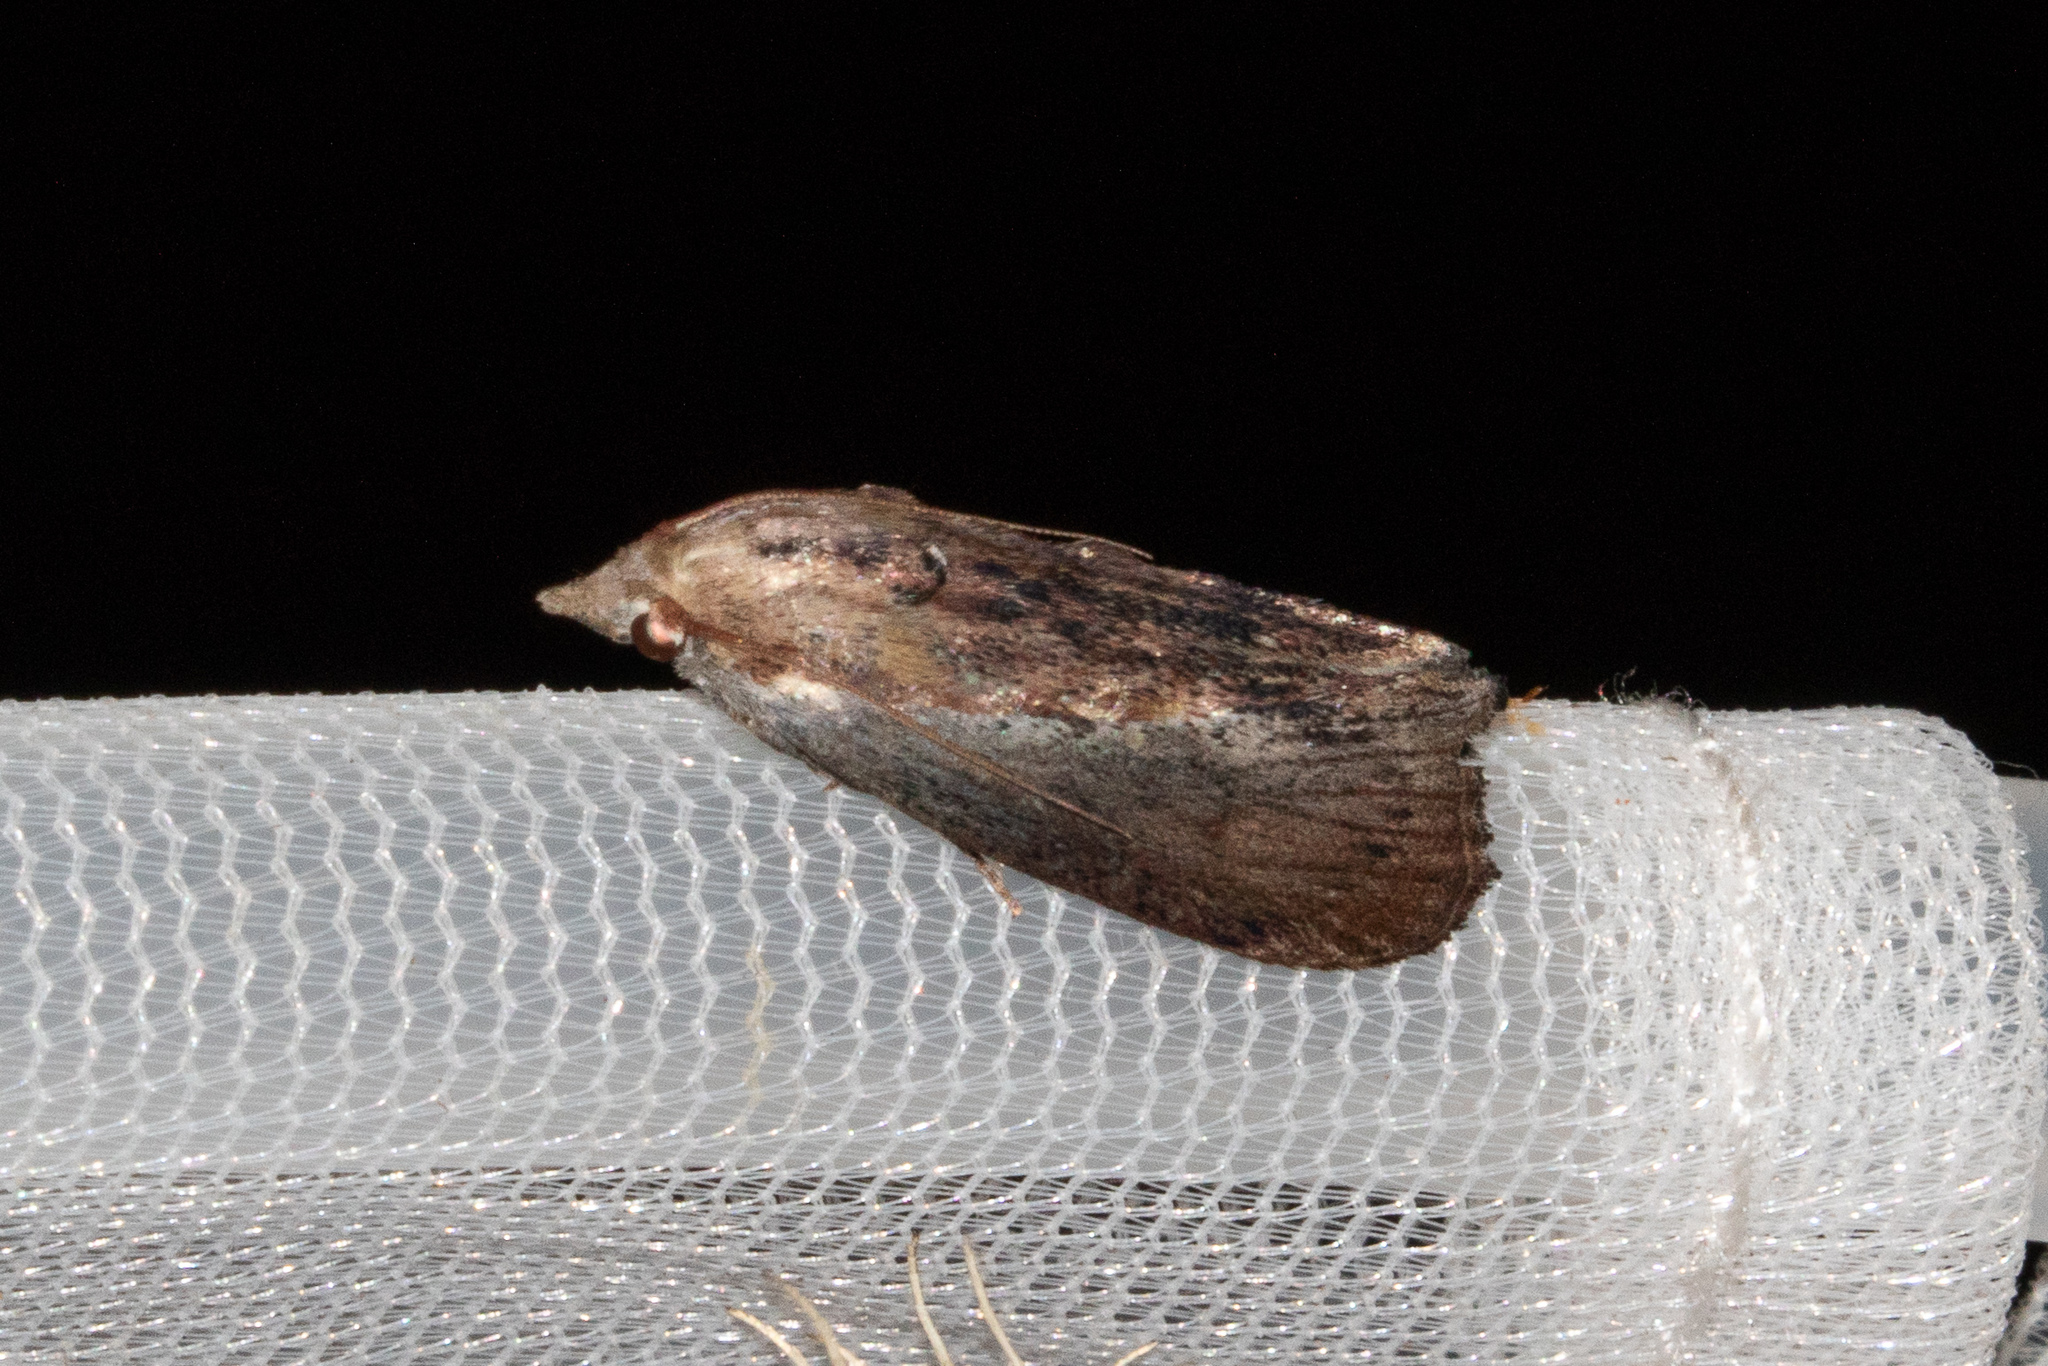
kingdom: Animalia
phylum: Arthropoda
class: Insecta
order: Lepidoptera
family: Pyralidae
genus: Galleria
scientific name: Galleria mellonella
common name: Greater wax moth
